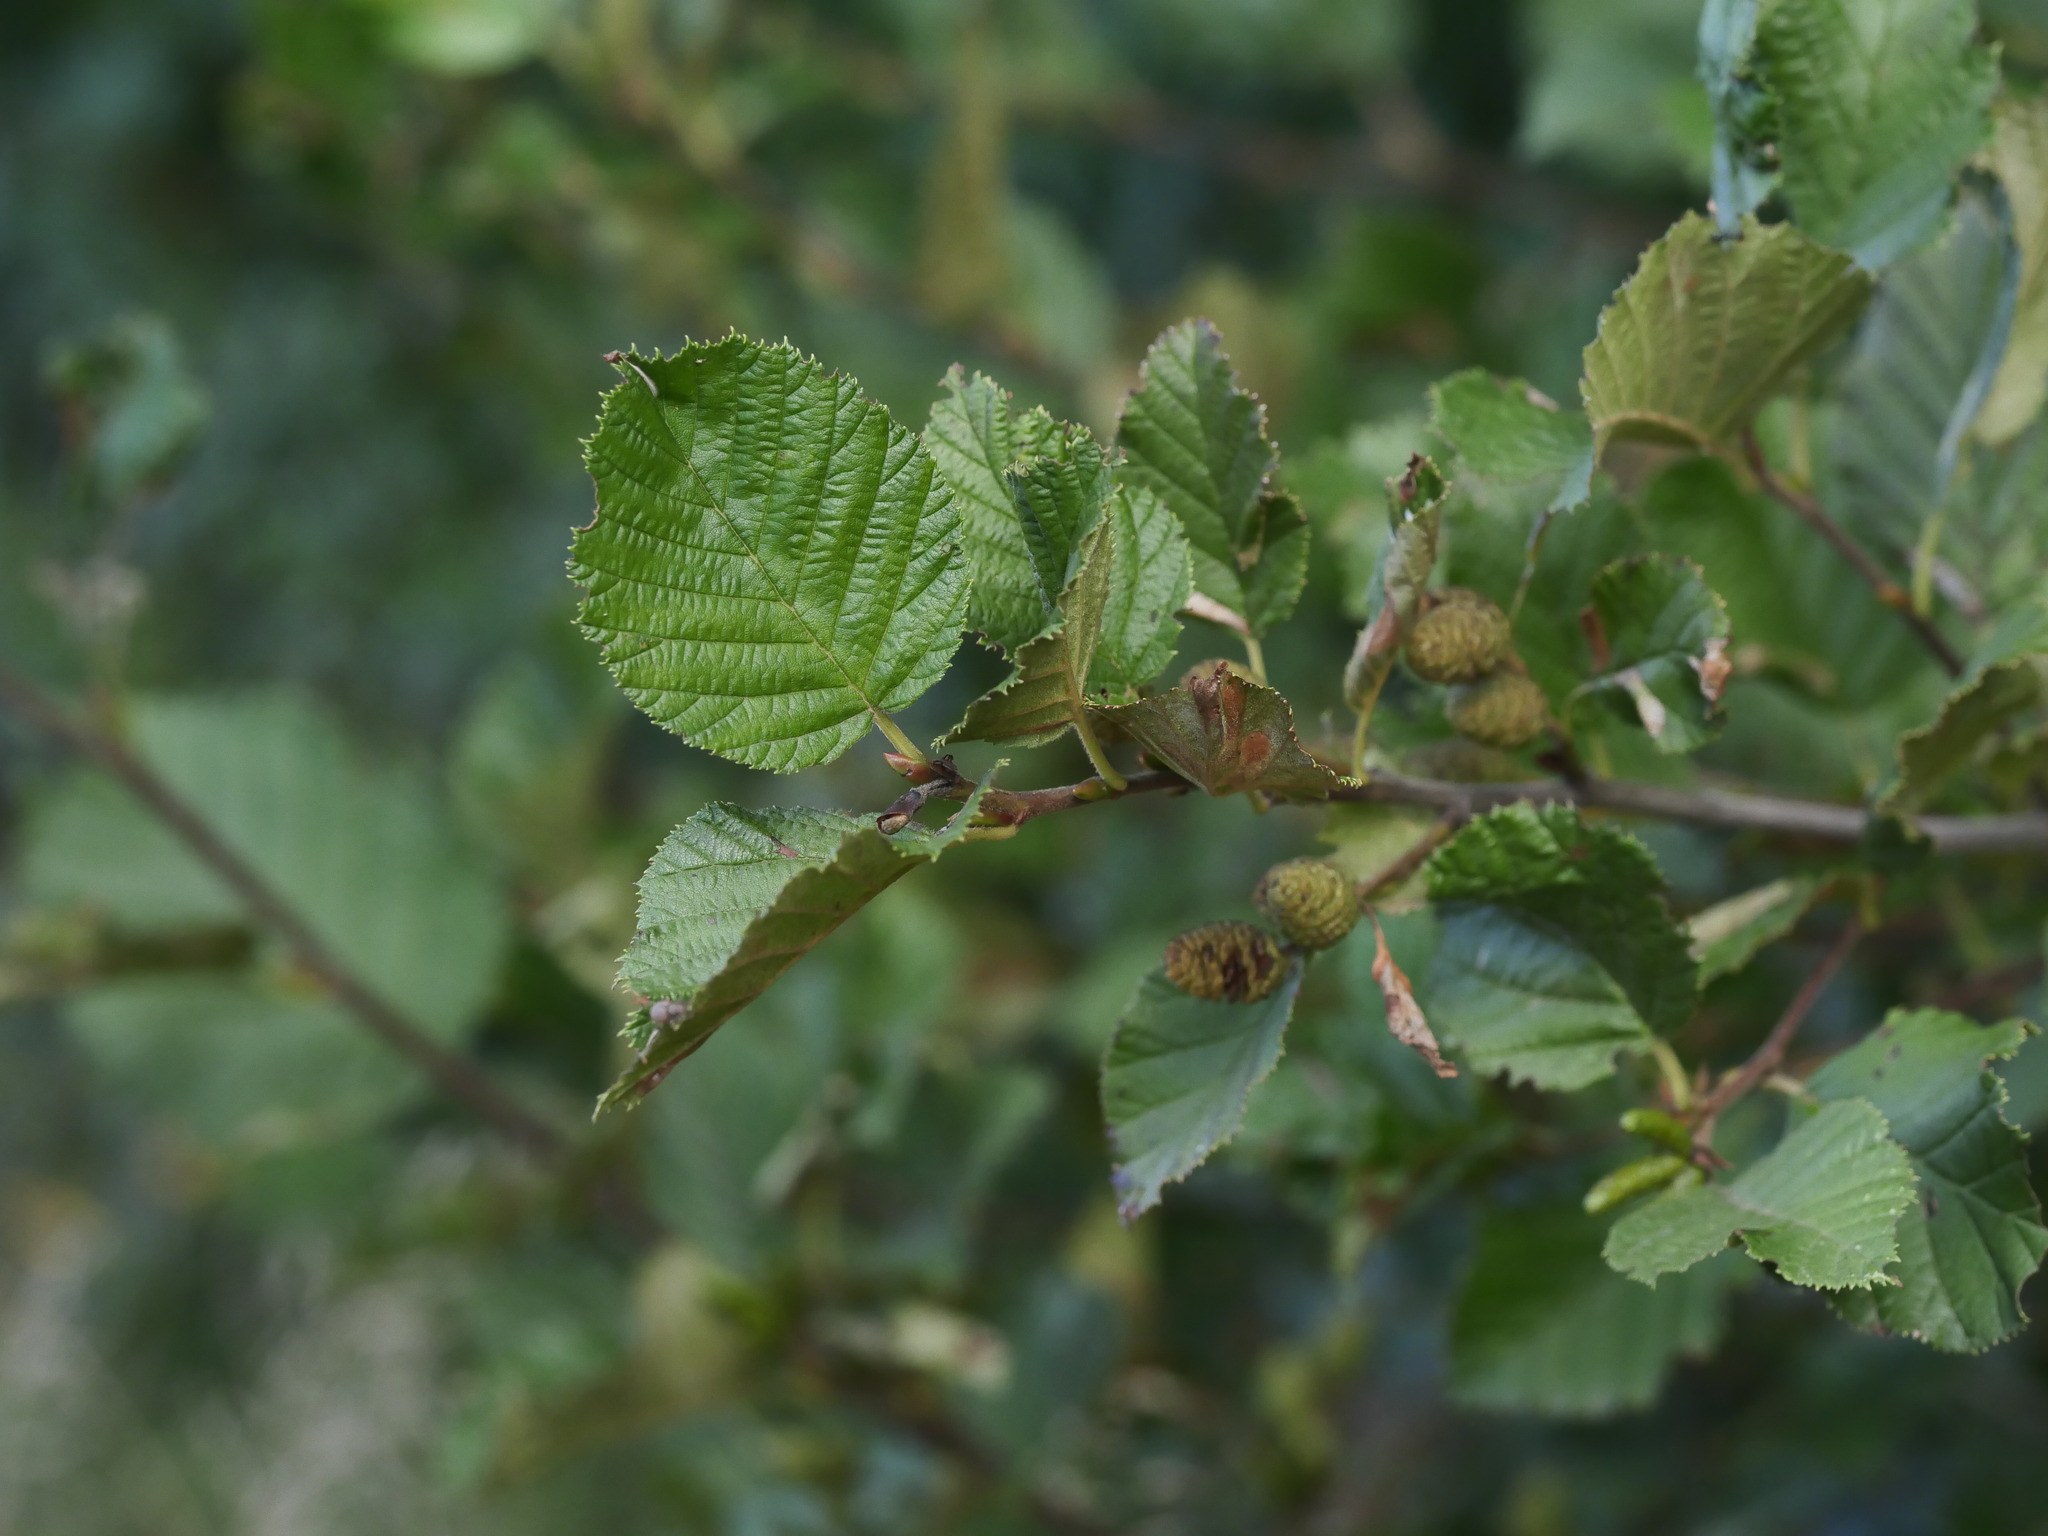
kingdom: Plantae
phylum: Tracheophyta
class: Magnoliopsida
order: Fagales
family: Betulaceae
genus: Alnus
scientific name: Alnus alnobetula
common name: Green alder
